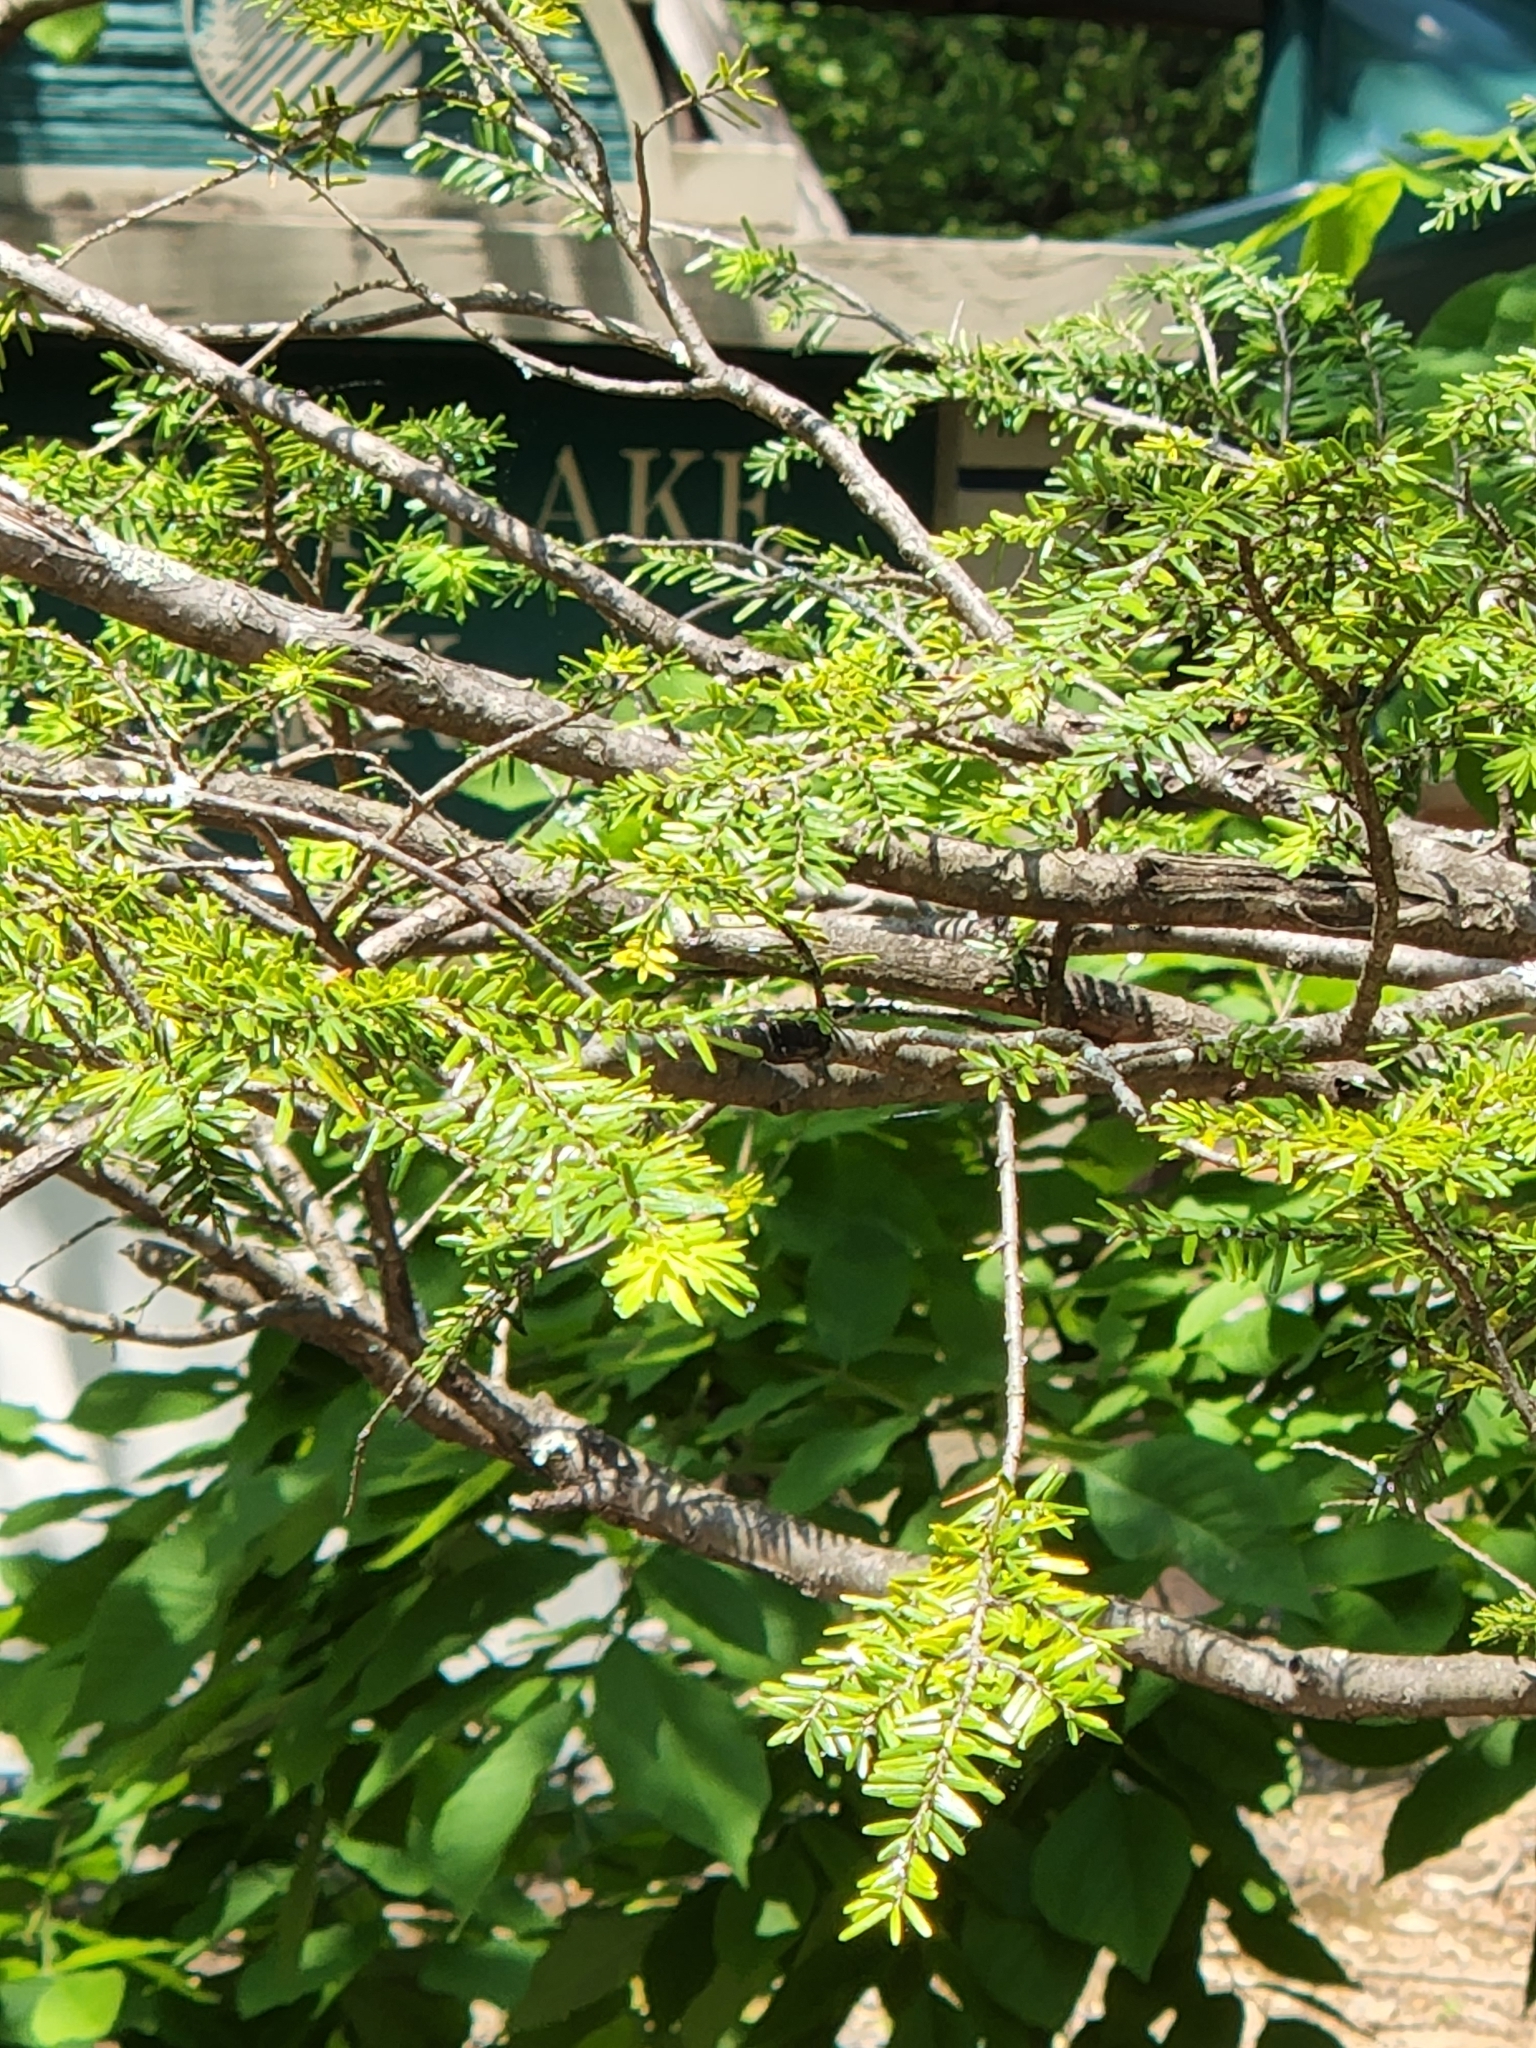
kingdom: Plantae
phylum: Tracheophyta
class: Pinopsida
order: Pinales
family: Pinaceae
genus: Tsuga
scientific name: Tsuga canadensis
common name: Eastern hemlock
